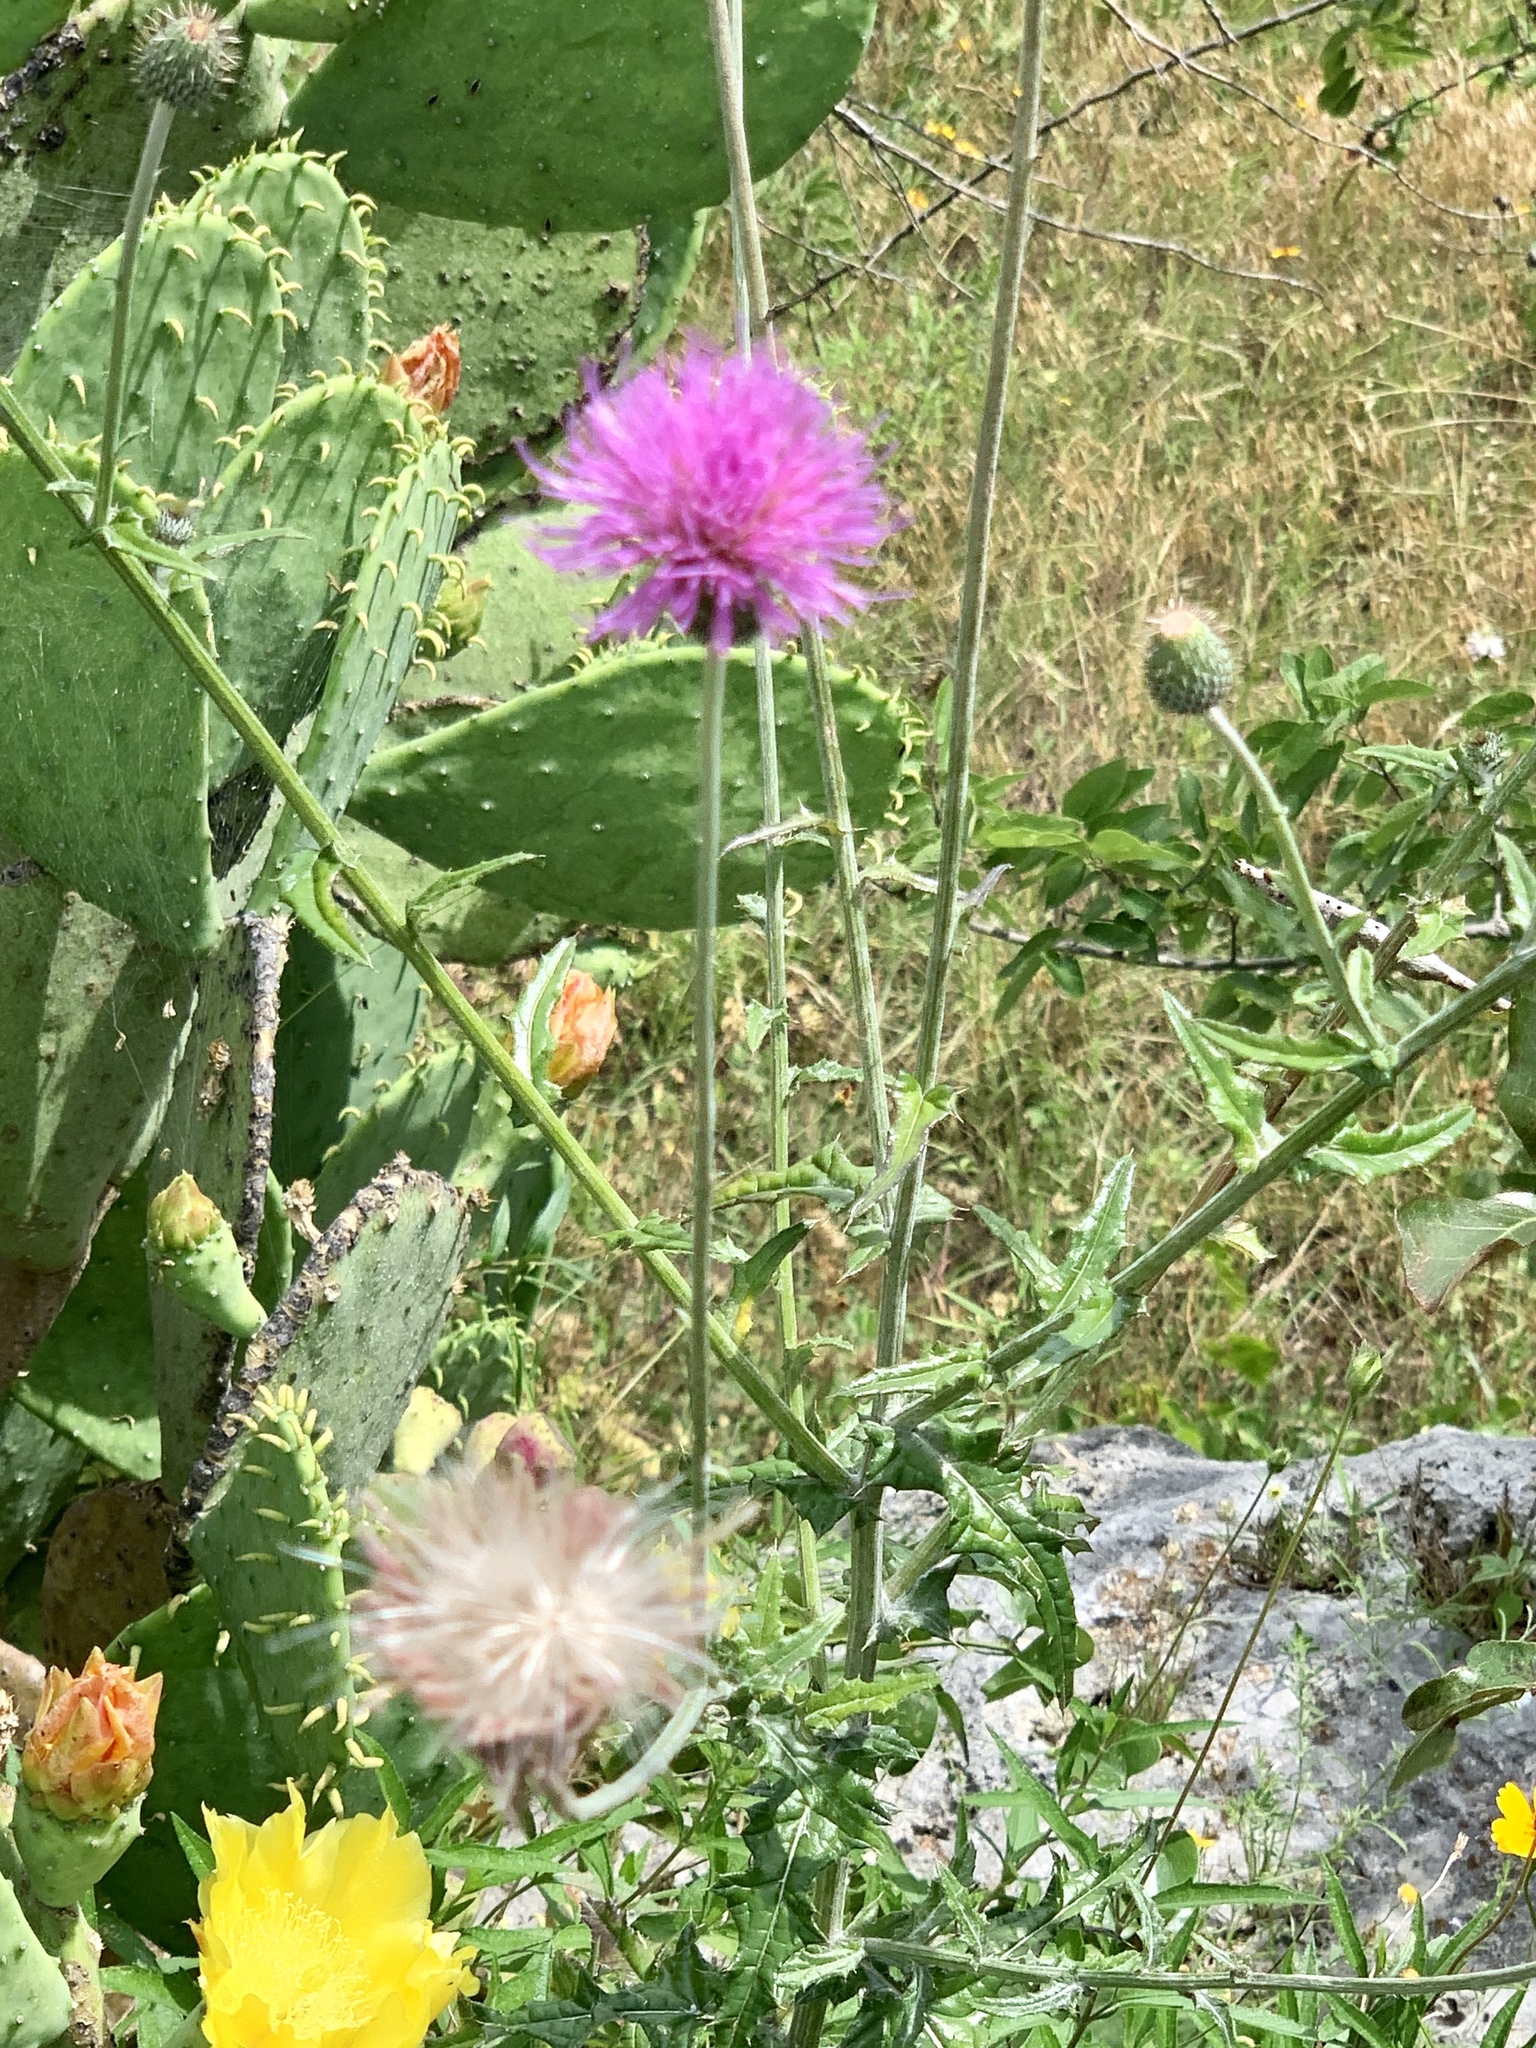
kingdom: Plantae
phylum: Tracheophyta
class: Magnoliopsida
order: Asterales
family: Asteraceae
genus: Cirsium
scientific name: Cirsium texanum
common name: Texas purple thistle
